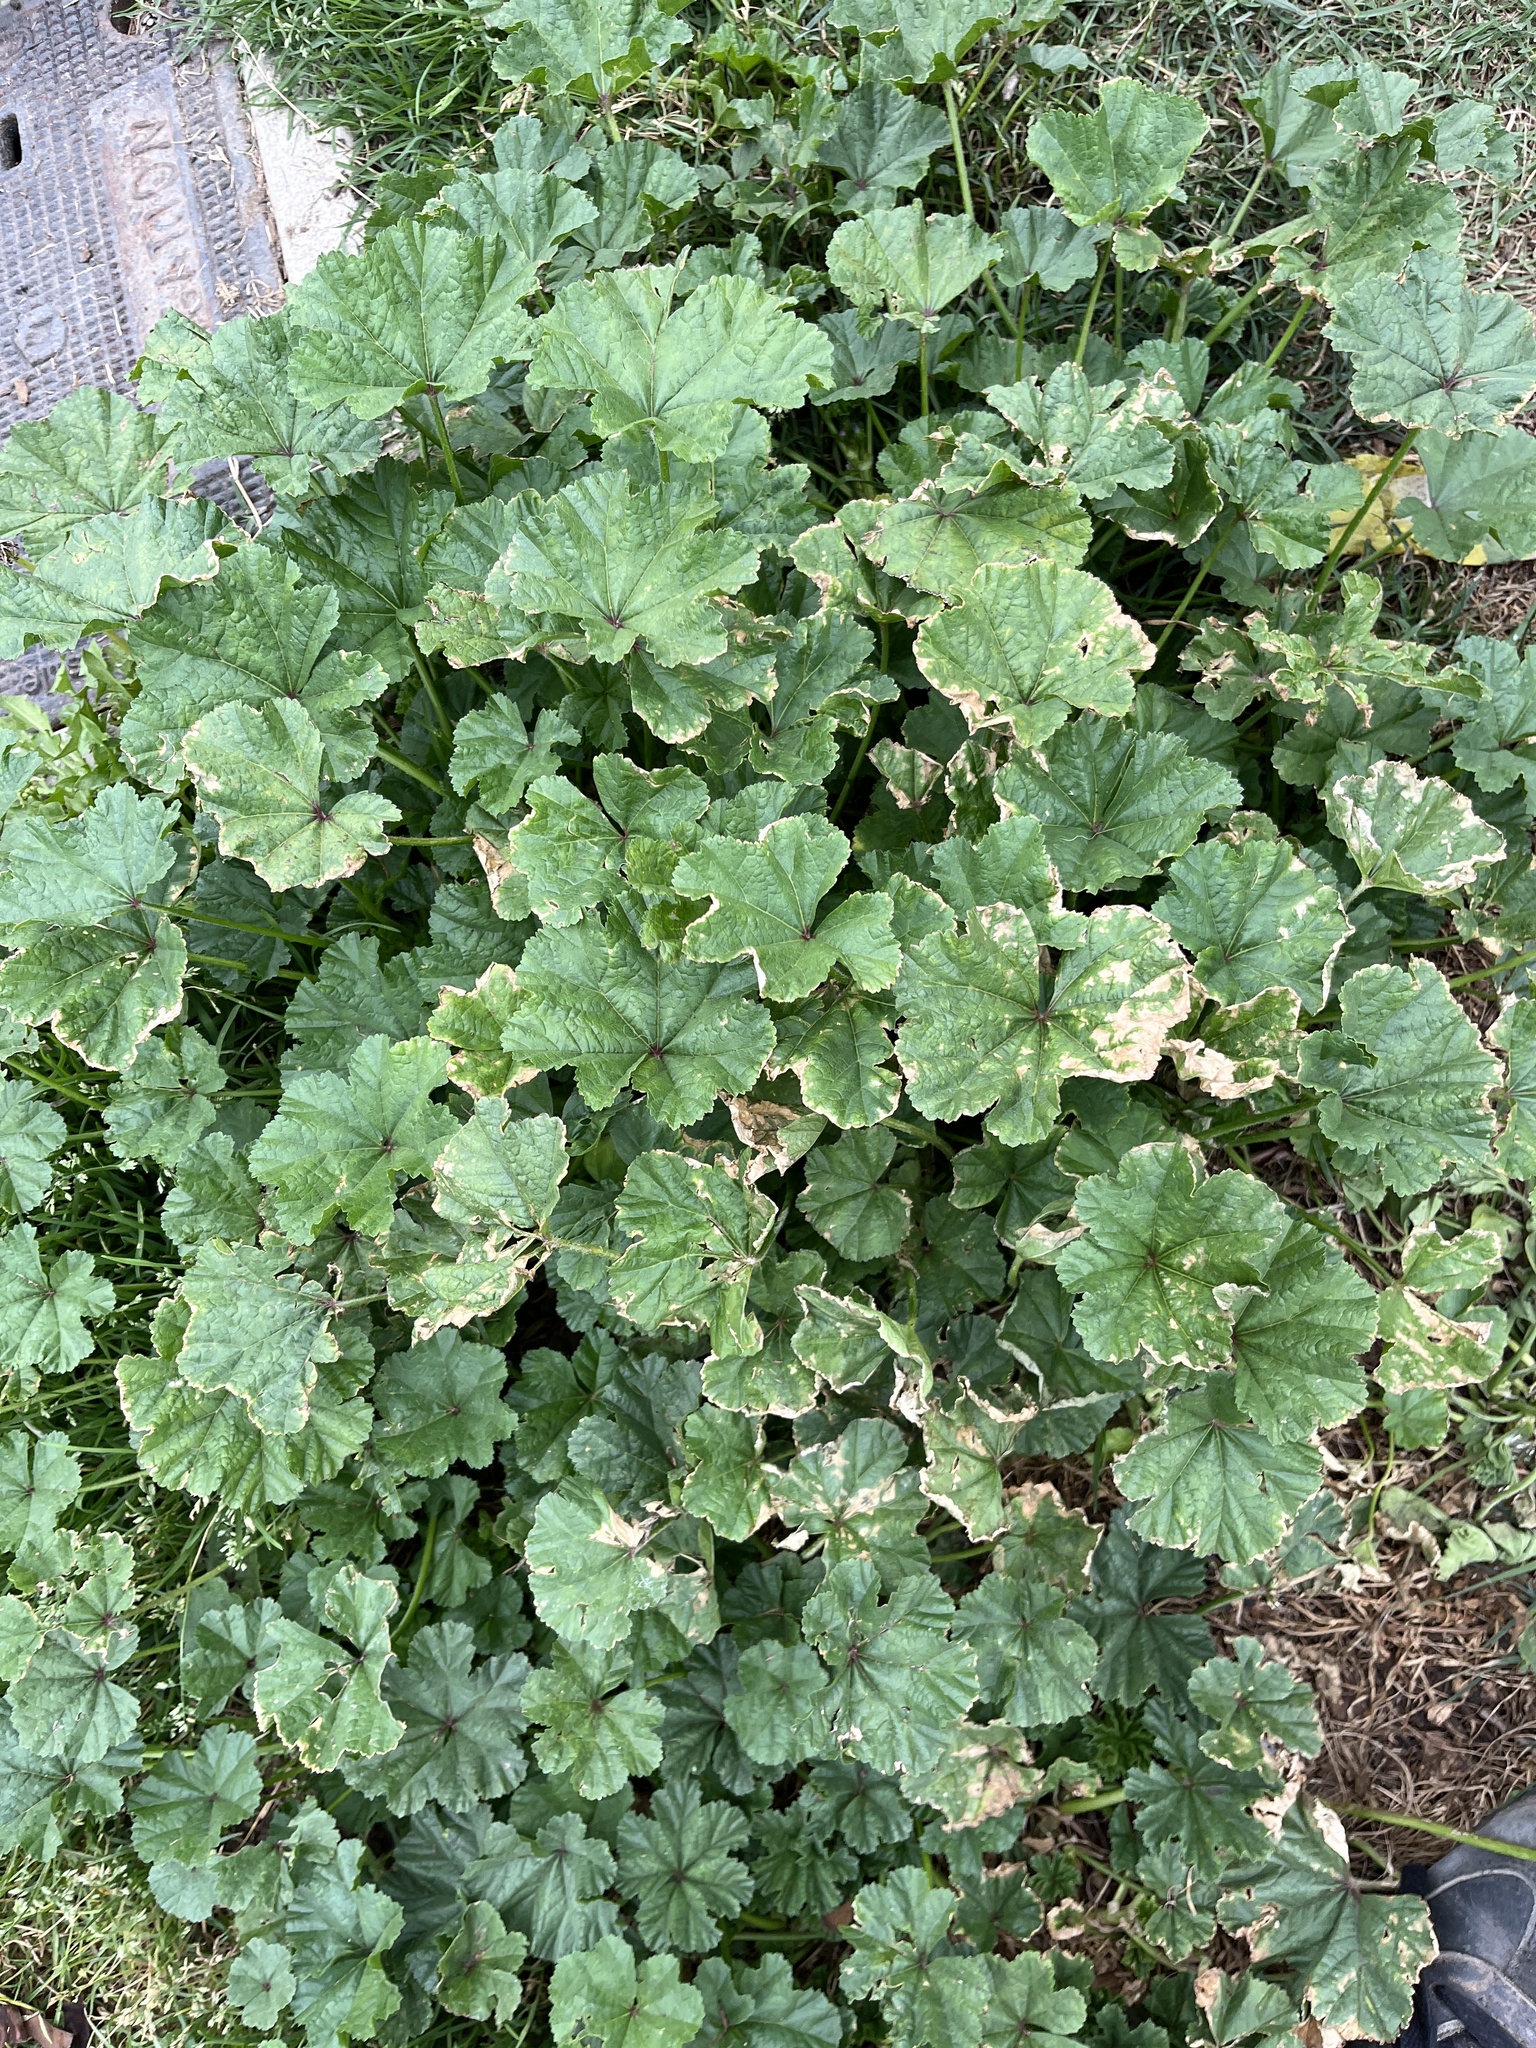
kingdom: Plantae
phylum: Tracheophyta
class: Magnoliopsida
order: Malvales
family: Malvaceae
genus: Malva
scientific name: Malva
